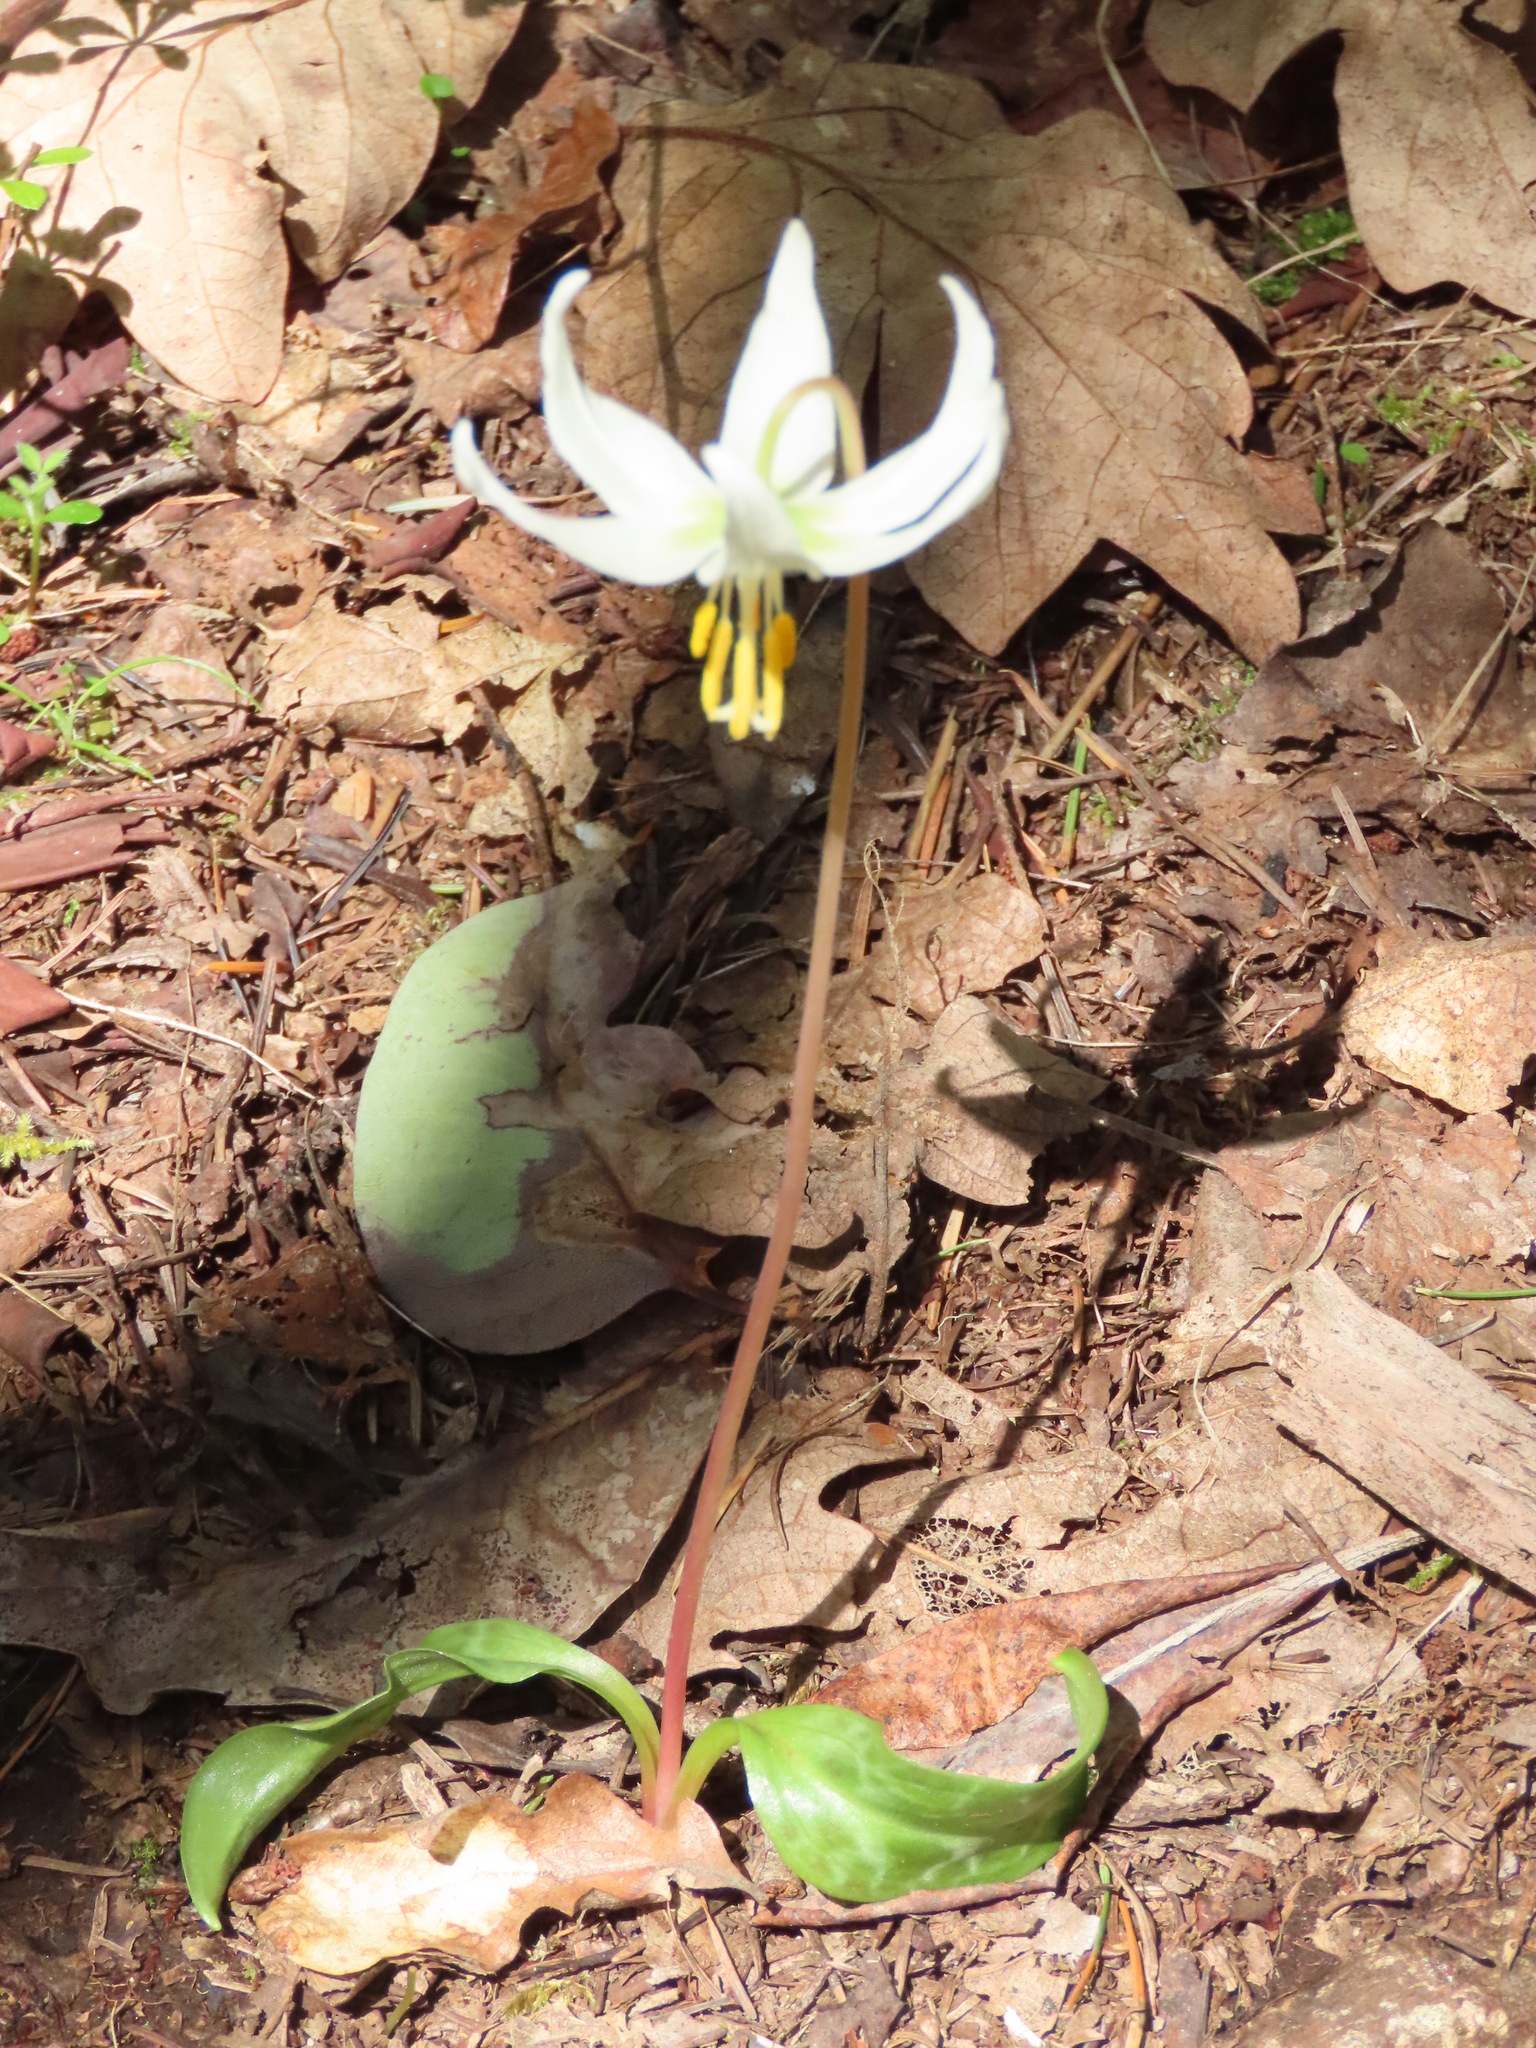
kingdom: Plantae
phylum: Tracheophyta
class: Liliopsida
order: Liliales
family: Liliaceae
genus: Erythronium
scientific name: Erythronium oregonum
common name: Giant adder's-tongue
